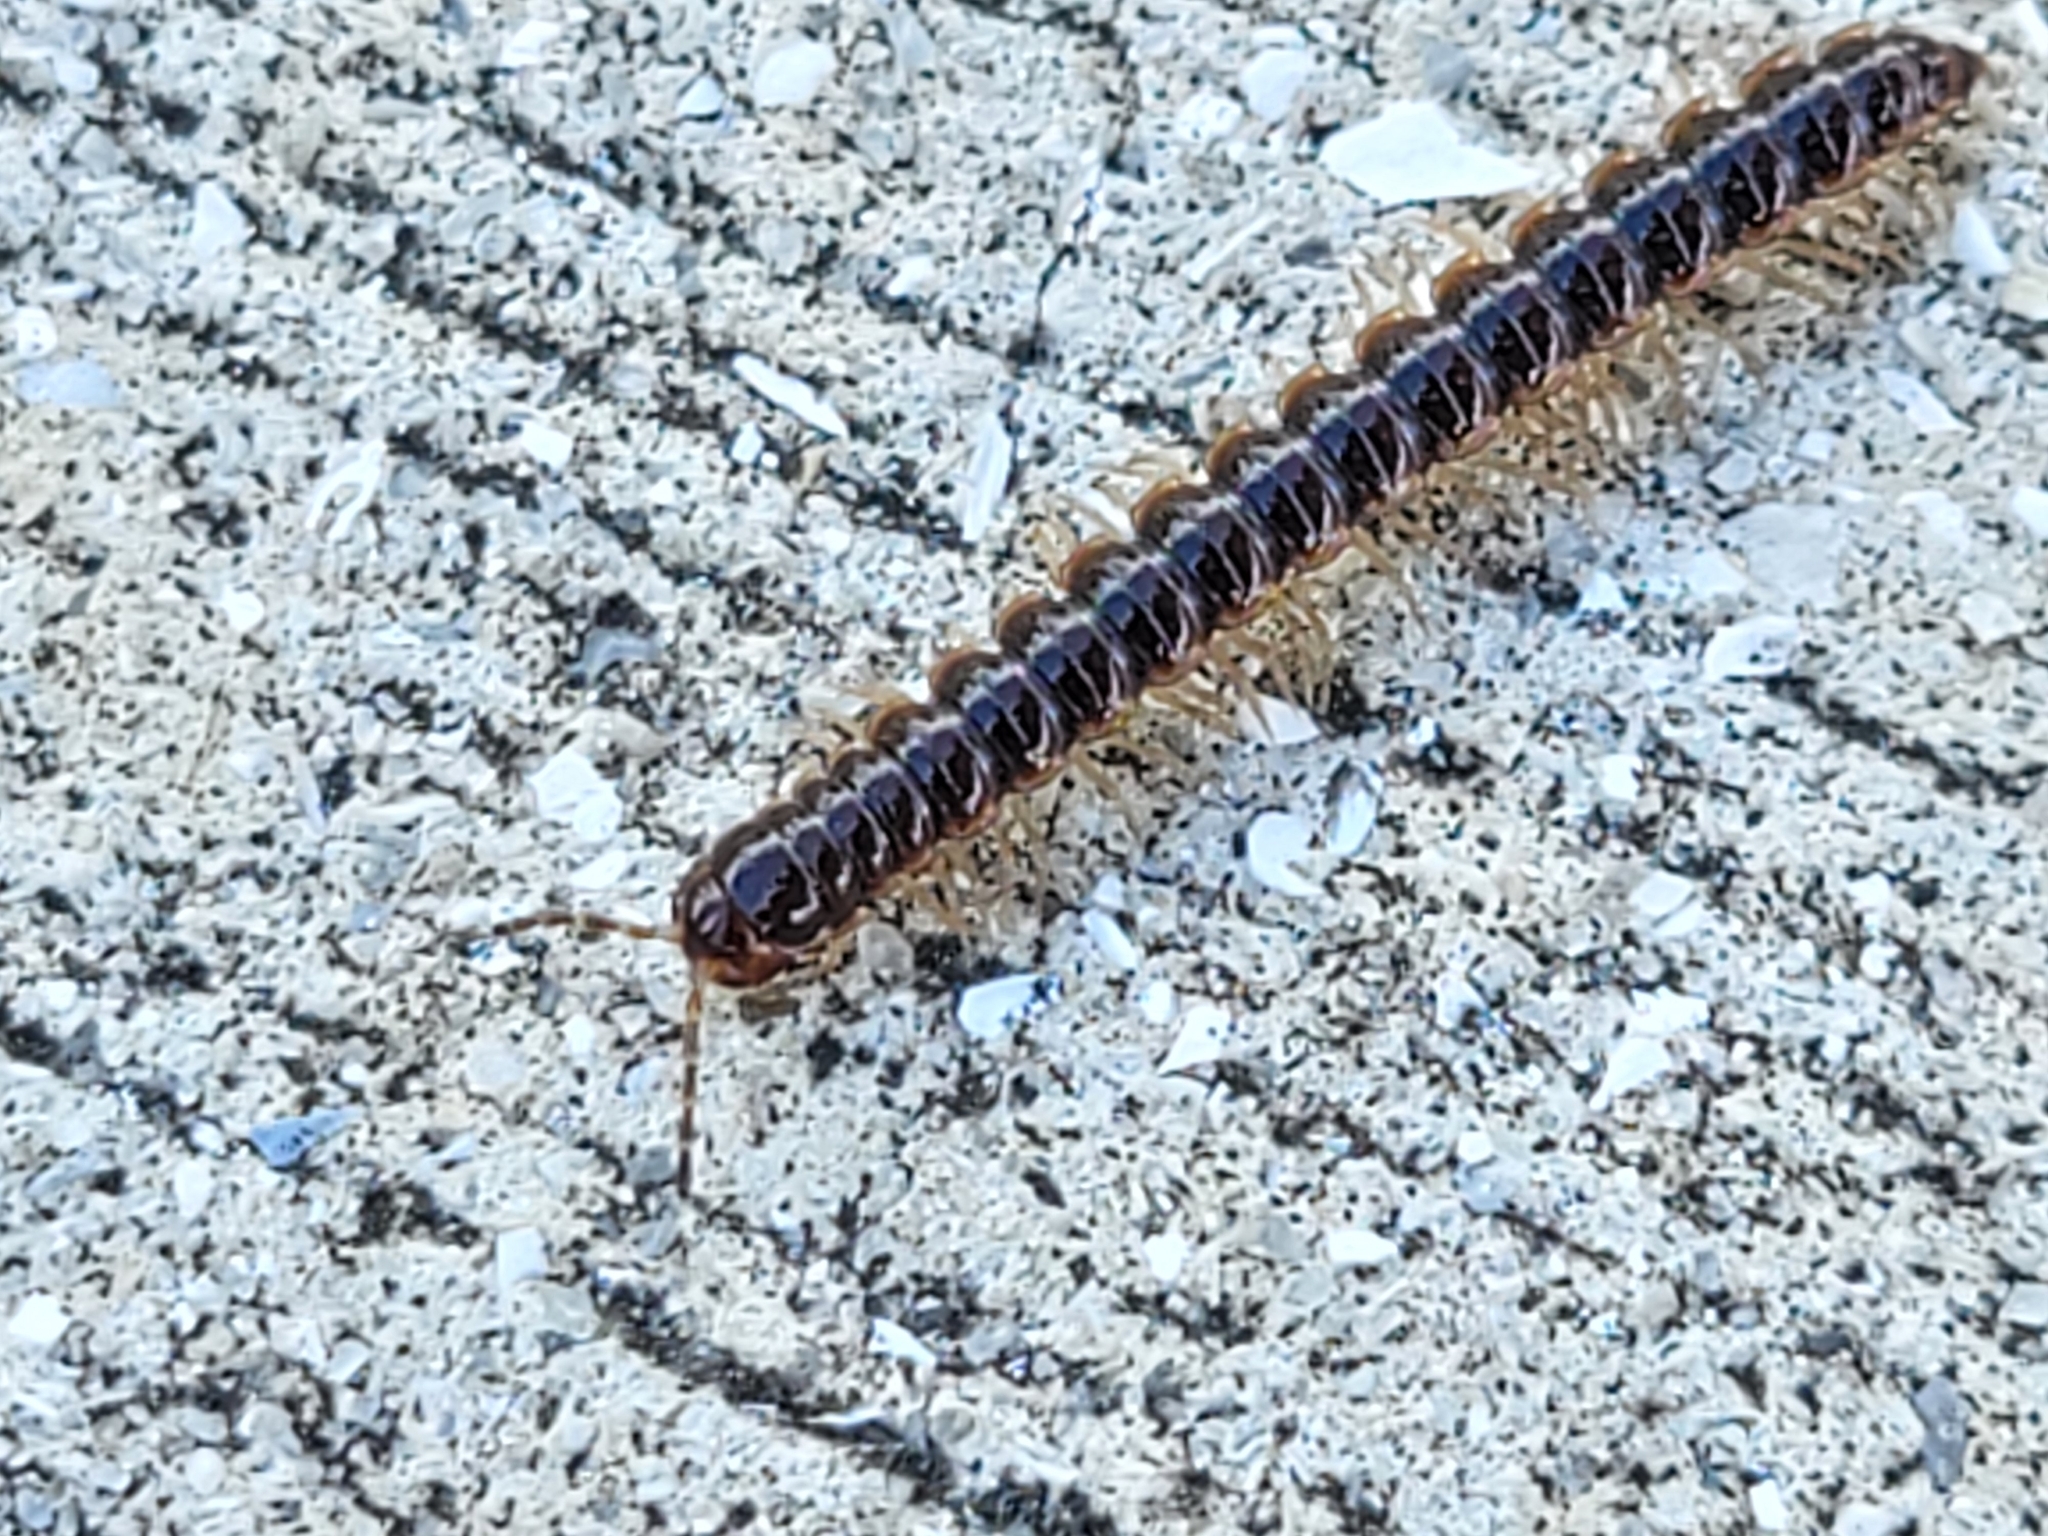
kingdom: Animalia
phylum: Arthropoda
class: Diplopoda
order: Polydesmida
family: Paradoxosomatidae
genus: Oxidus
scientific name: Oxidus gracilis
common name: Greenhouse millipede
